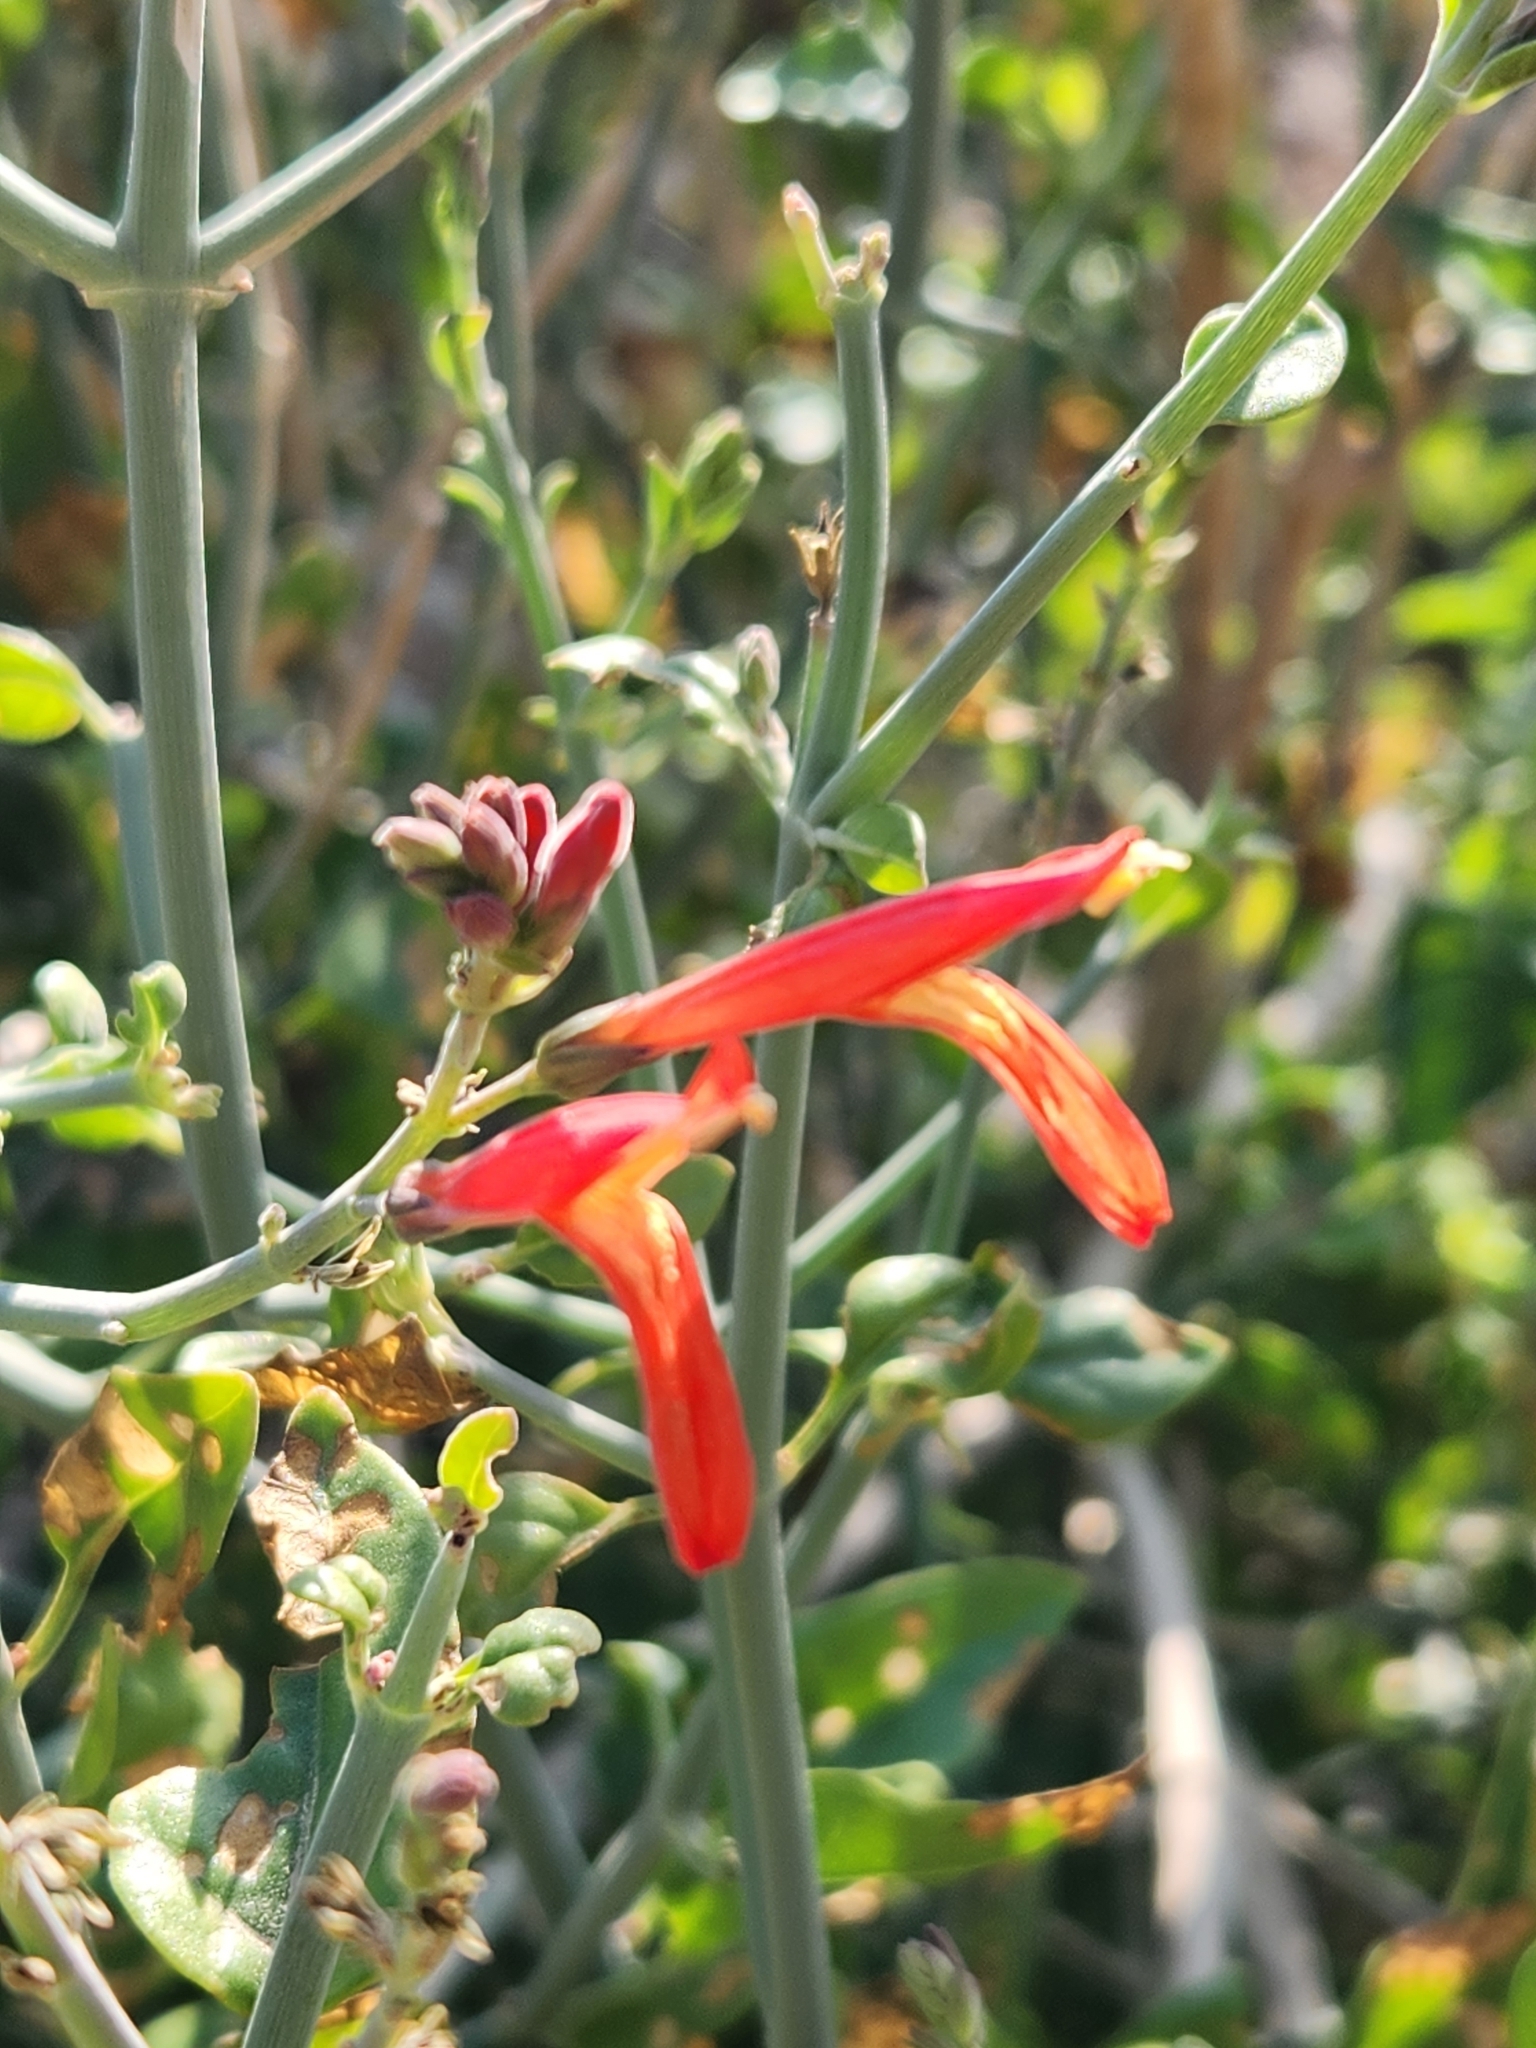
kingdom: Plantae
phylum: Tracheophyta
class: Magnoliopsida
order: Lamiales
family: Acanthaceae
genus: Justicia
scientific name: Justicia californica
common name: Chuparosa-honeysuckle
